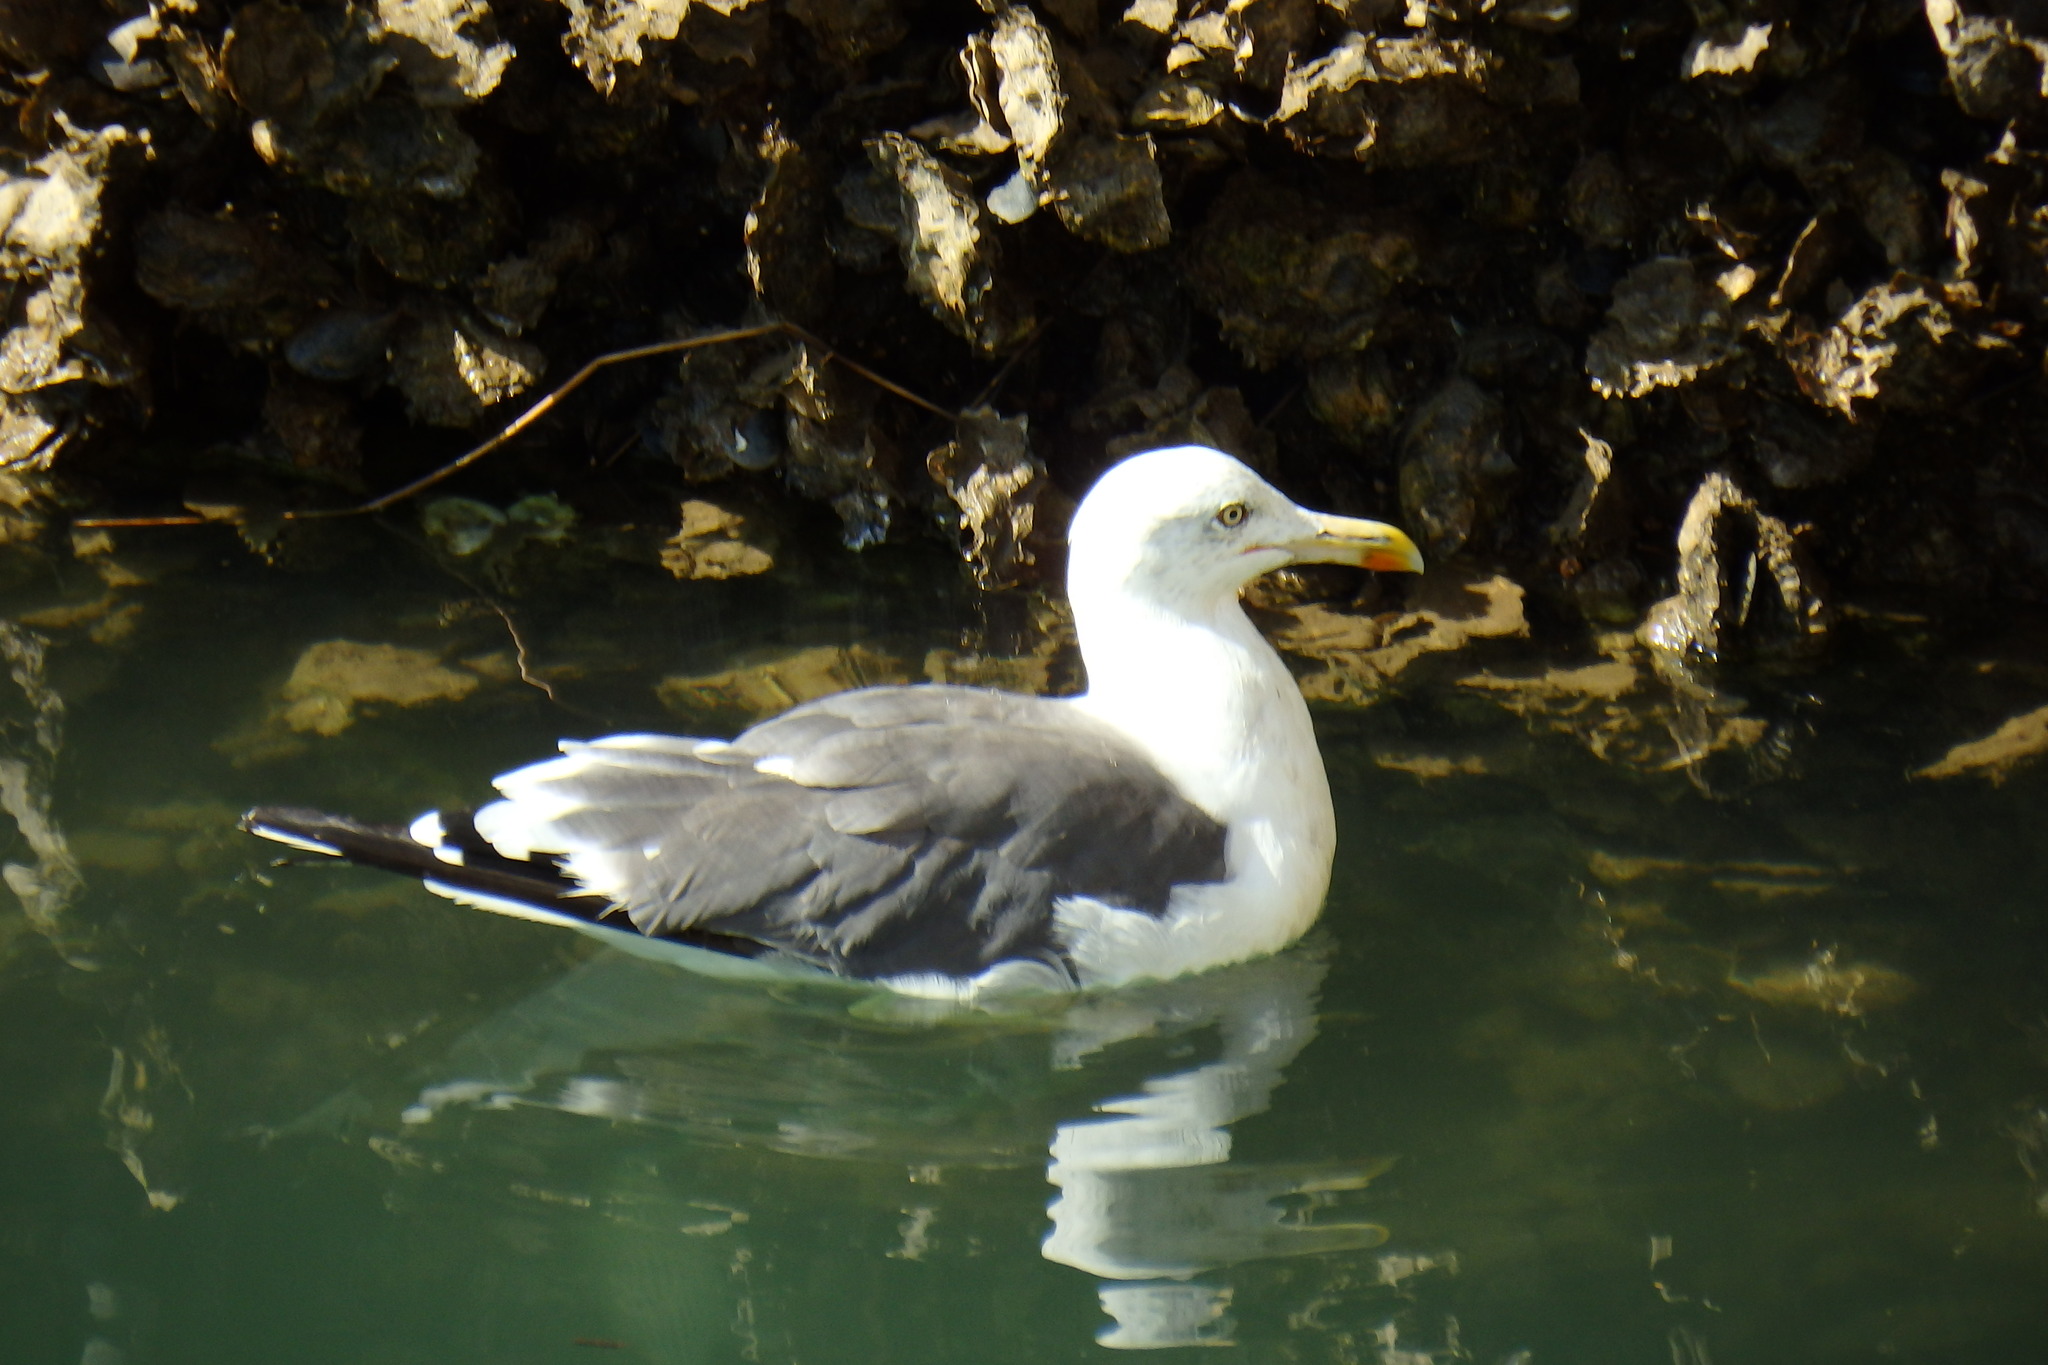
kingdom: Animalia
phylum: Chordata
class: Aves
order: Charadriiformes
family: Laridae
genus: Larus
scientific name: Larus michahellis
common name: Yellow-legged gull
